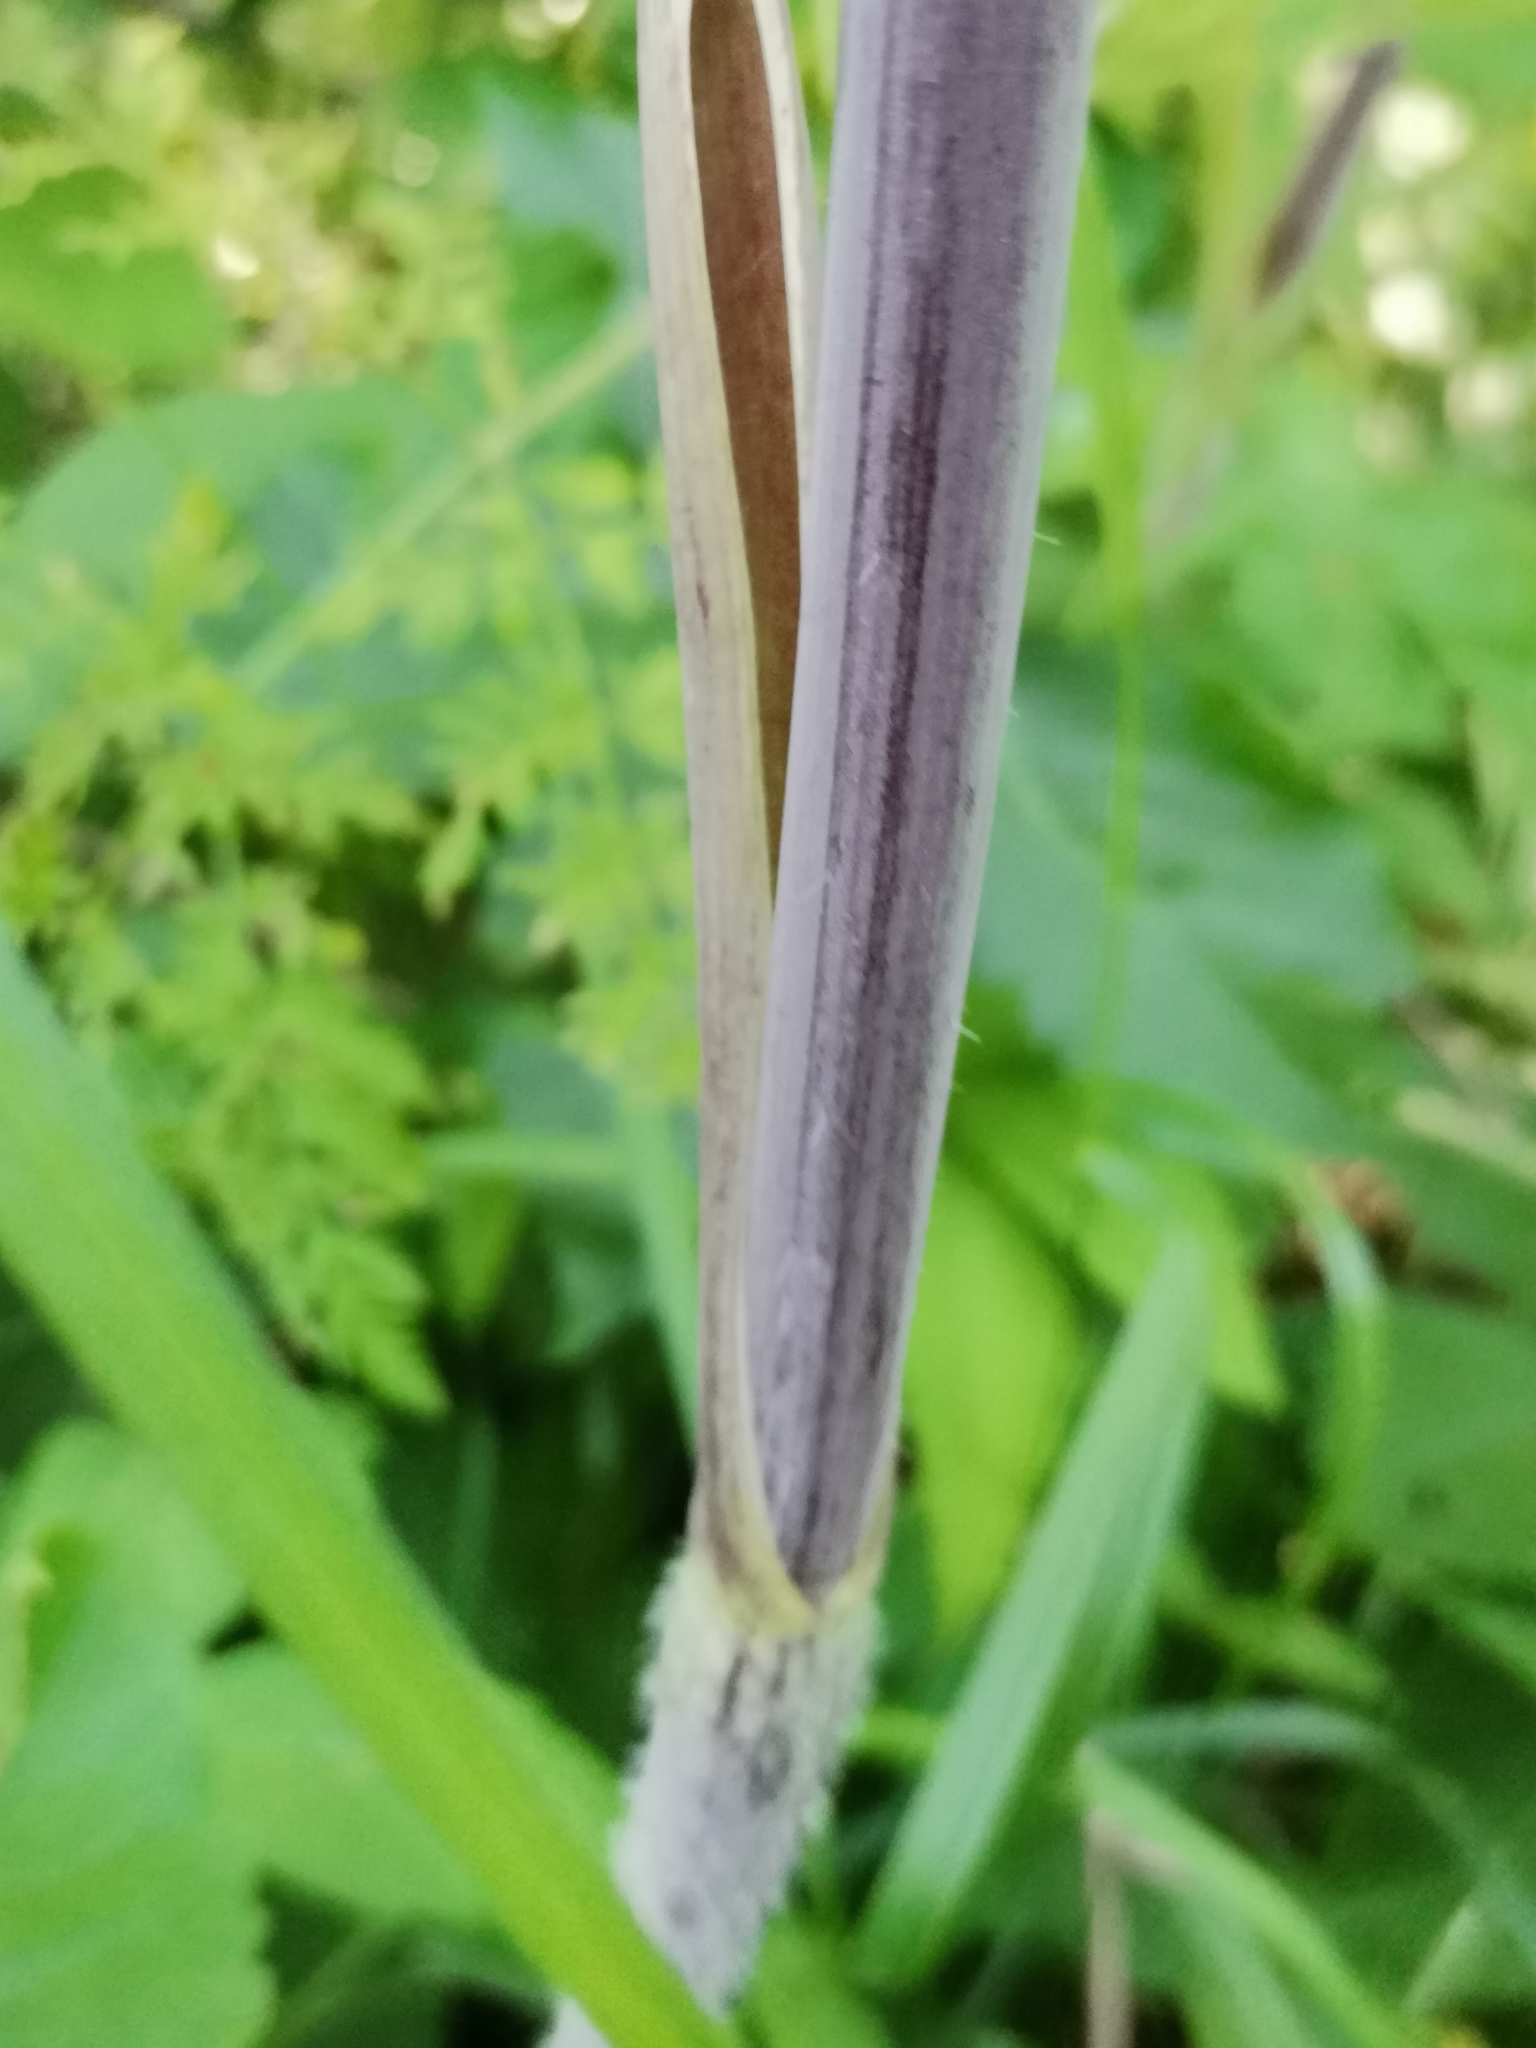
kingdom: Plantae
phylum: Tracheophyta
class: Magnoliopsida
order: Apiales
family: Apiaceae
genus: Chaerophyllum
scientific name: Chaerophyllum bulbosum
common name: Bulbous chervil
